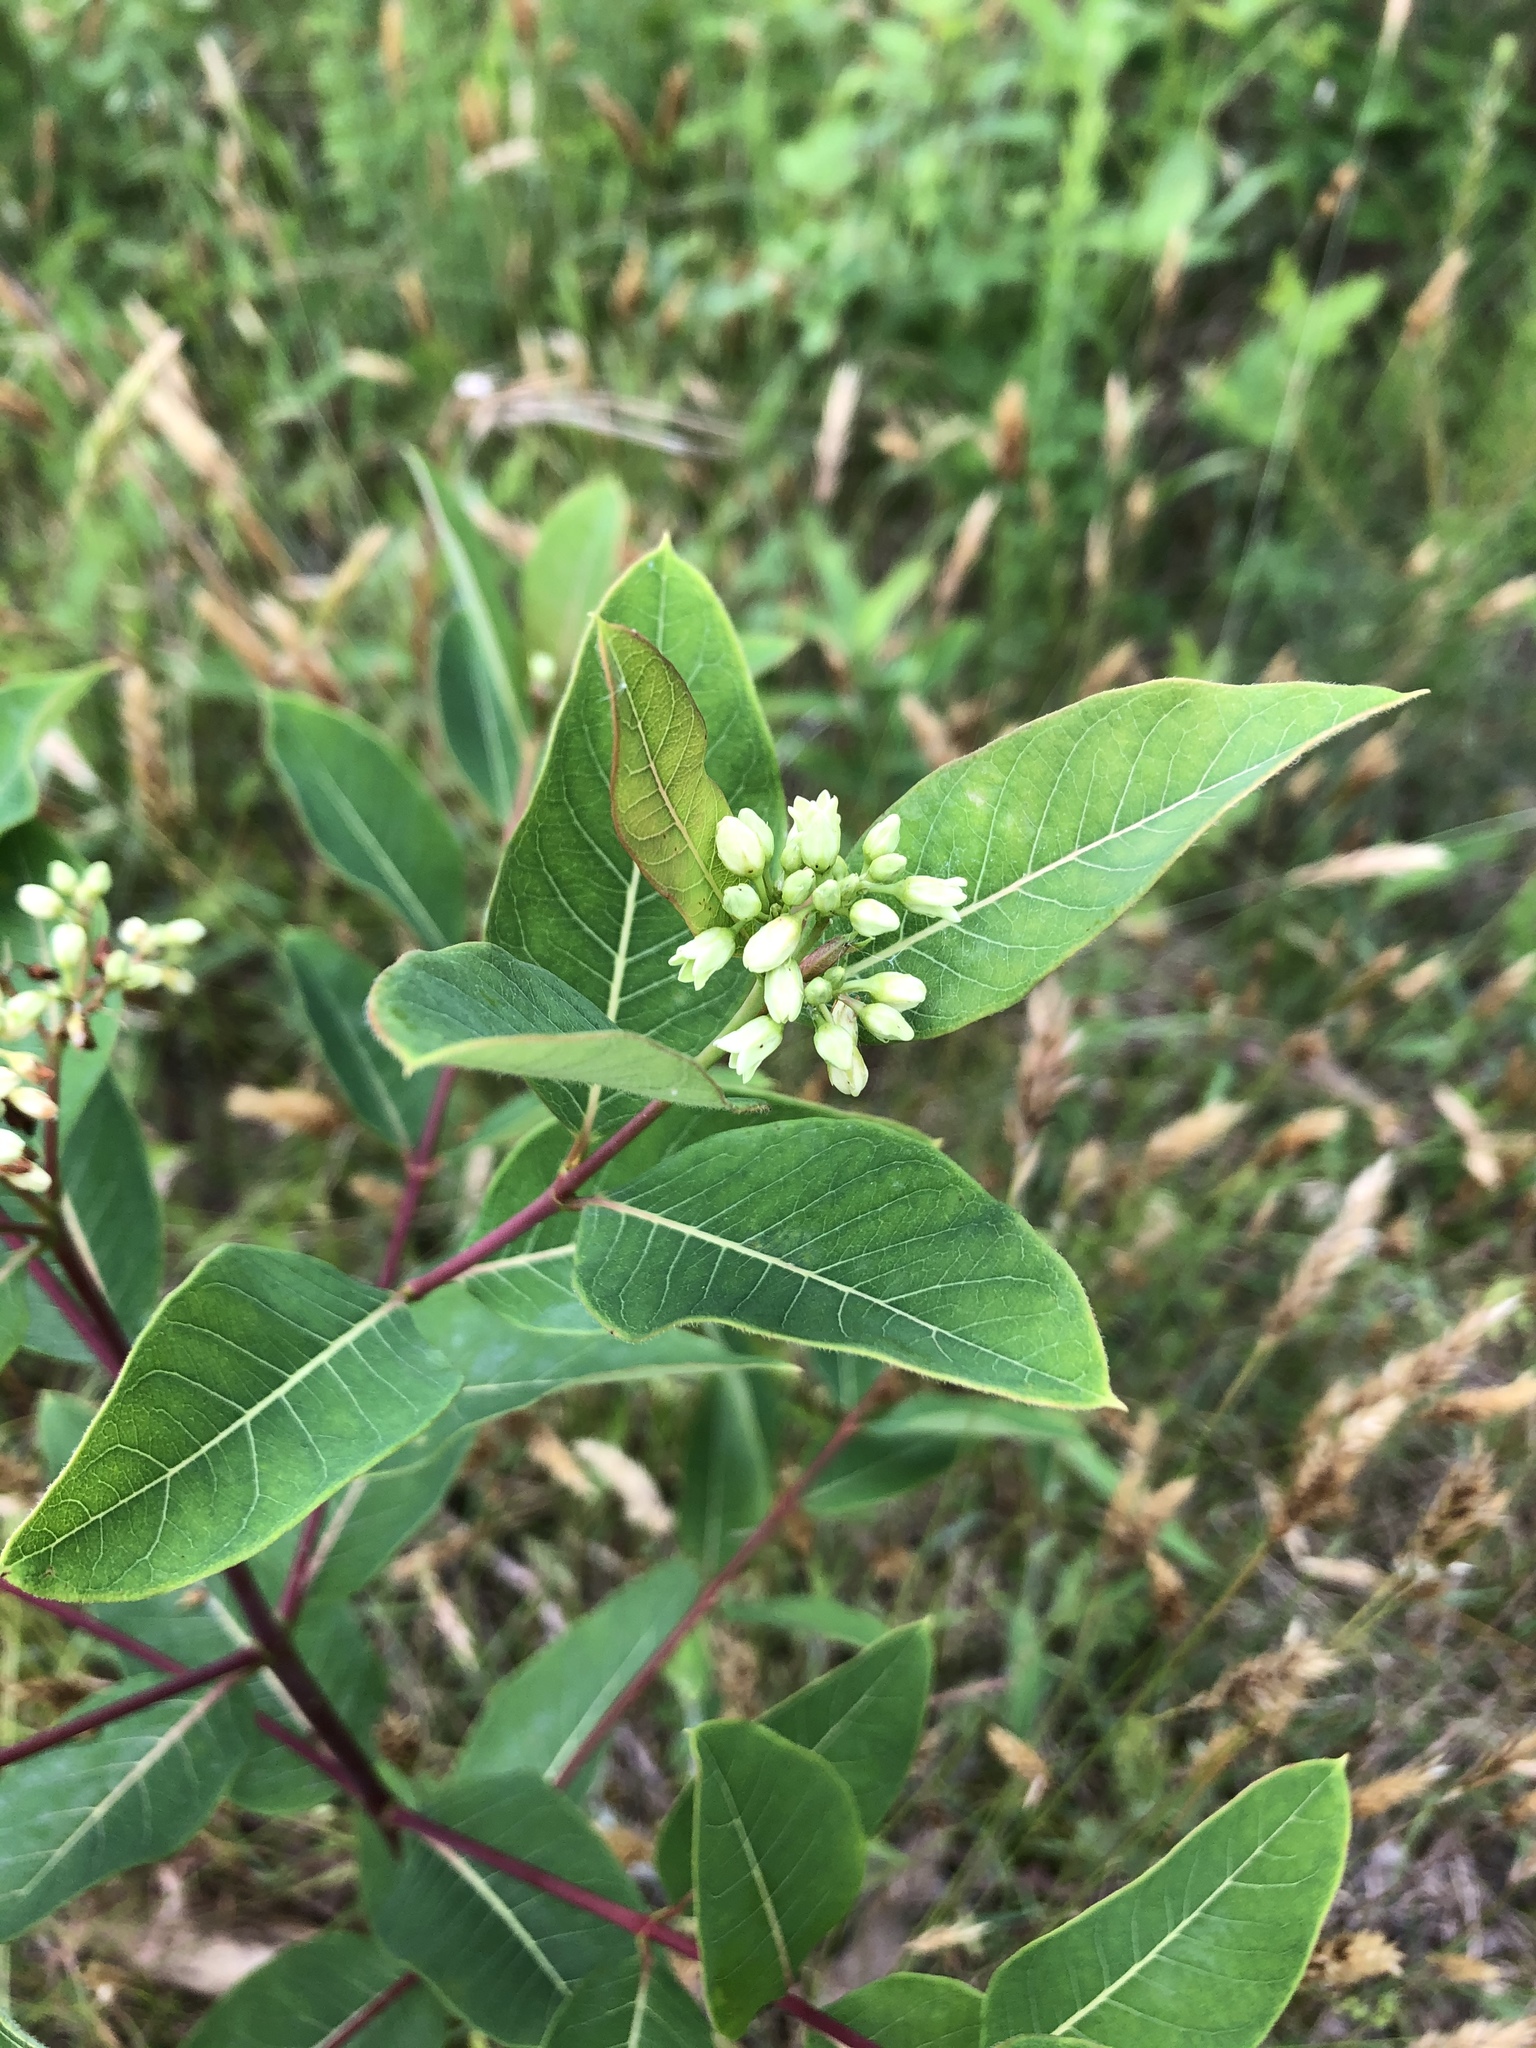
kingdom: Plantae
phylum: Tracheophyta
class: Magnoliopsida
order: Gentianales
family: Apocynaceae
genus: Apocynum
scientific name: Apocynum cannabinum
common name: Hemp dogbane
